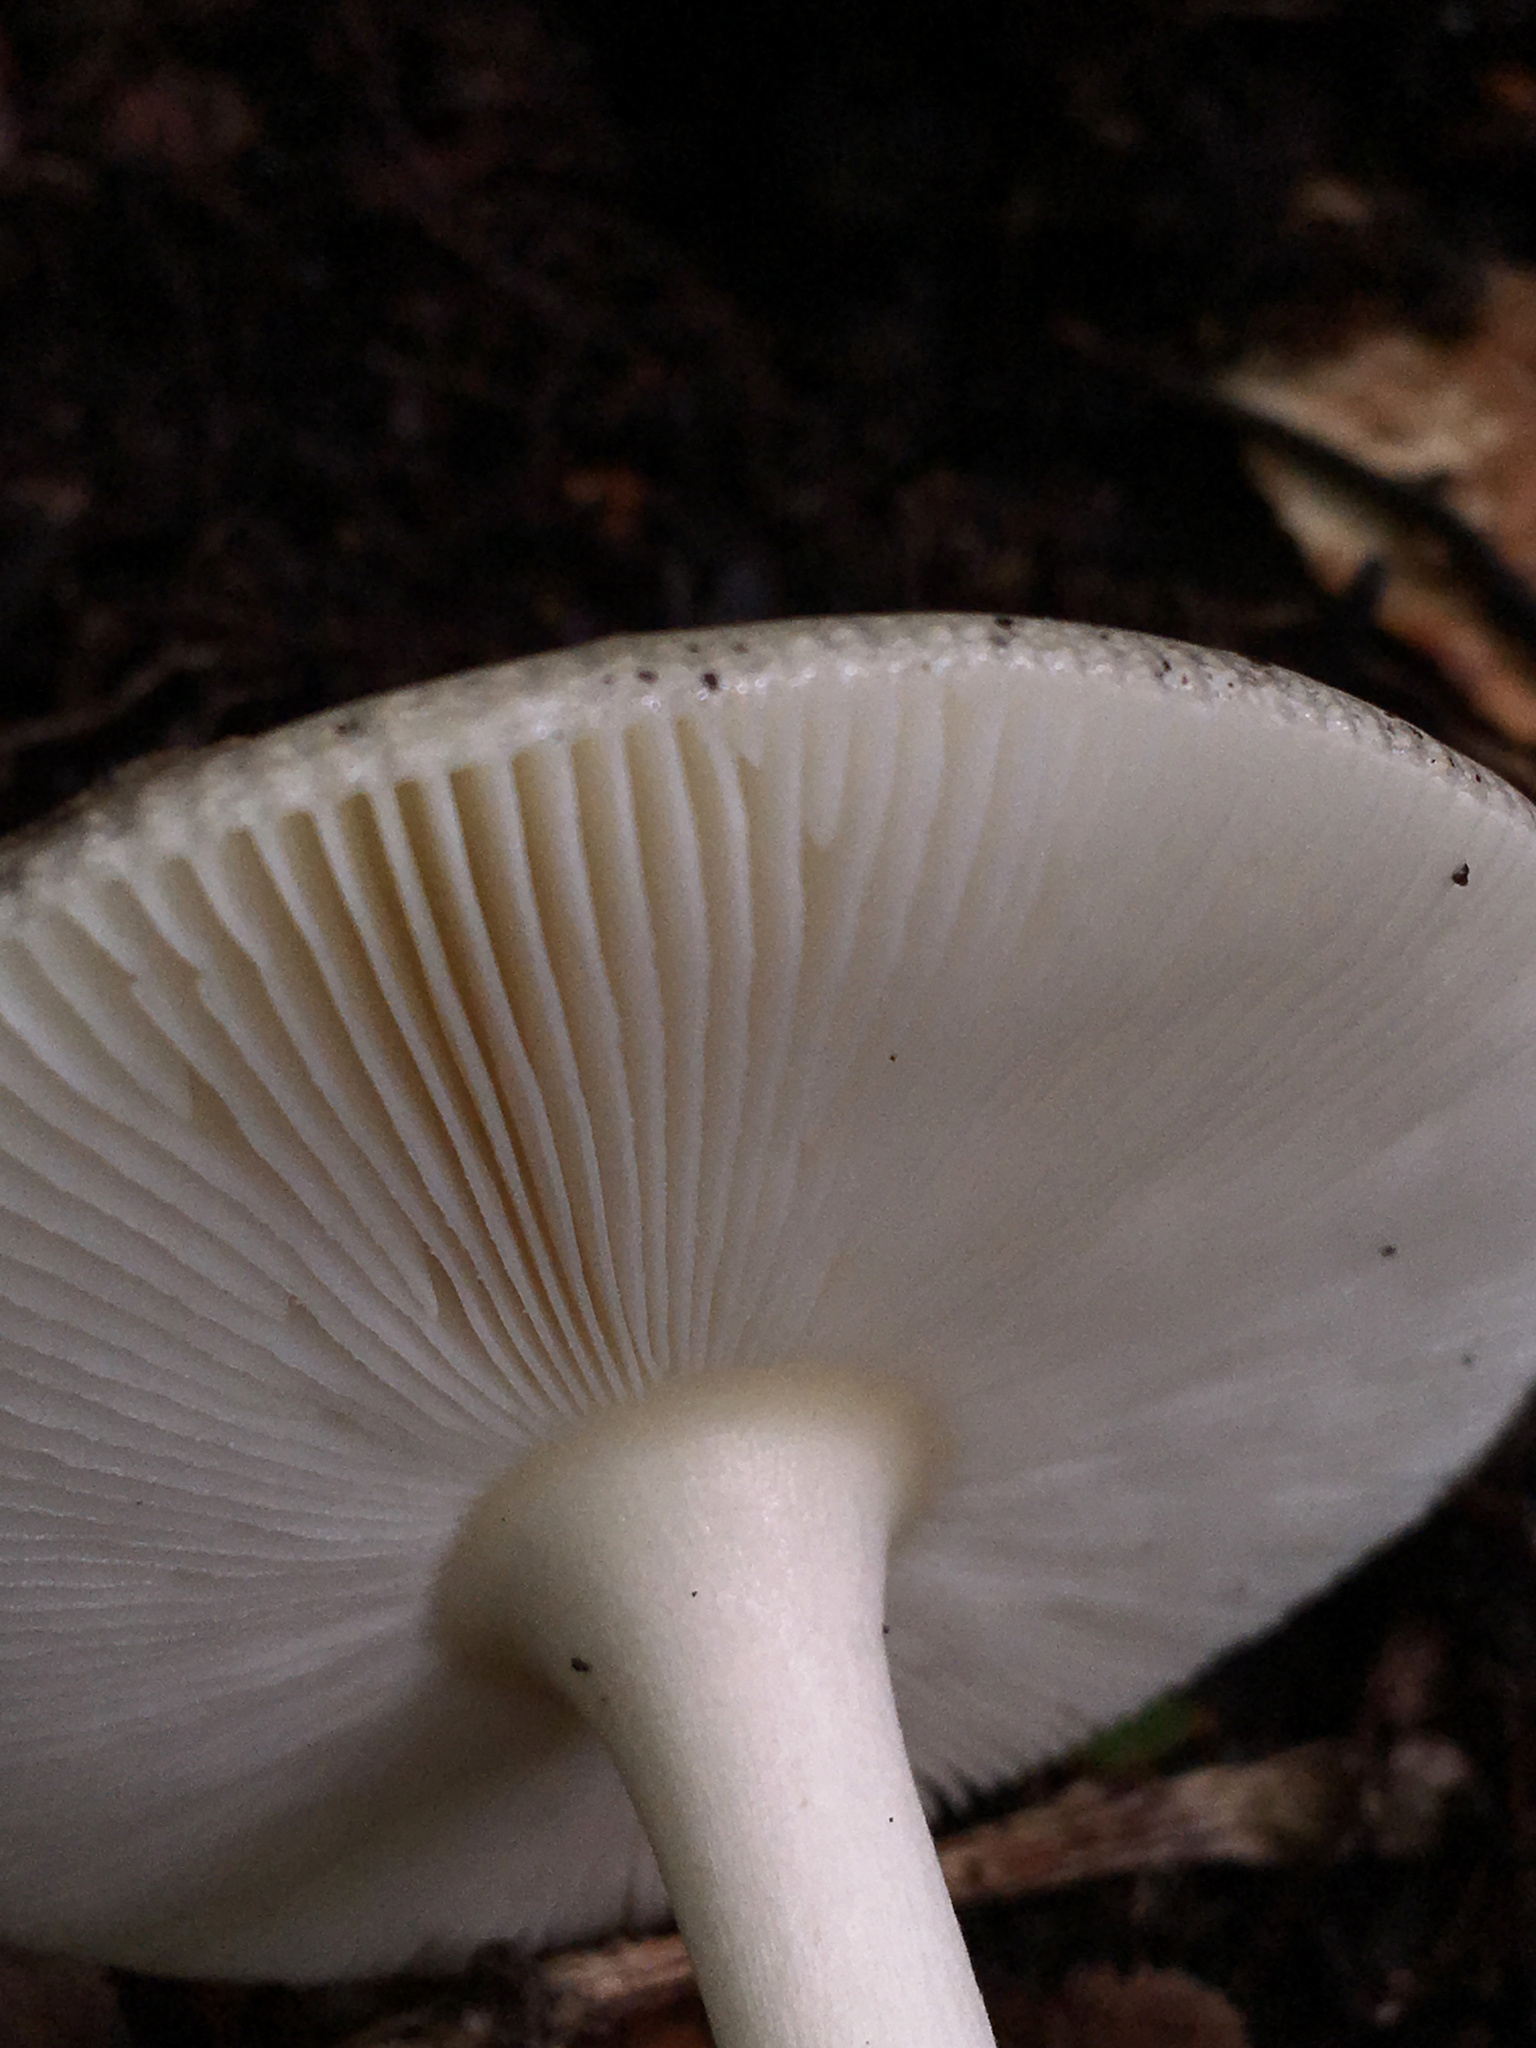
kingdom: Fungi
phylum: Basidiomycota
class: Agaricomycetes
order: Agaricales
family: Amanitaceae
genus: Amanita
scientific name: Amanita velatipes
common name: Great funnel-veil amanita
